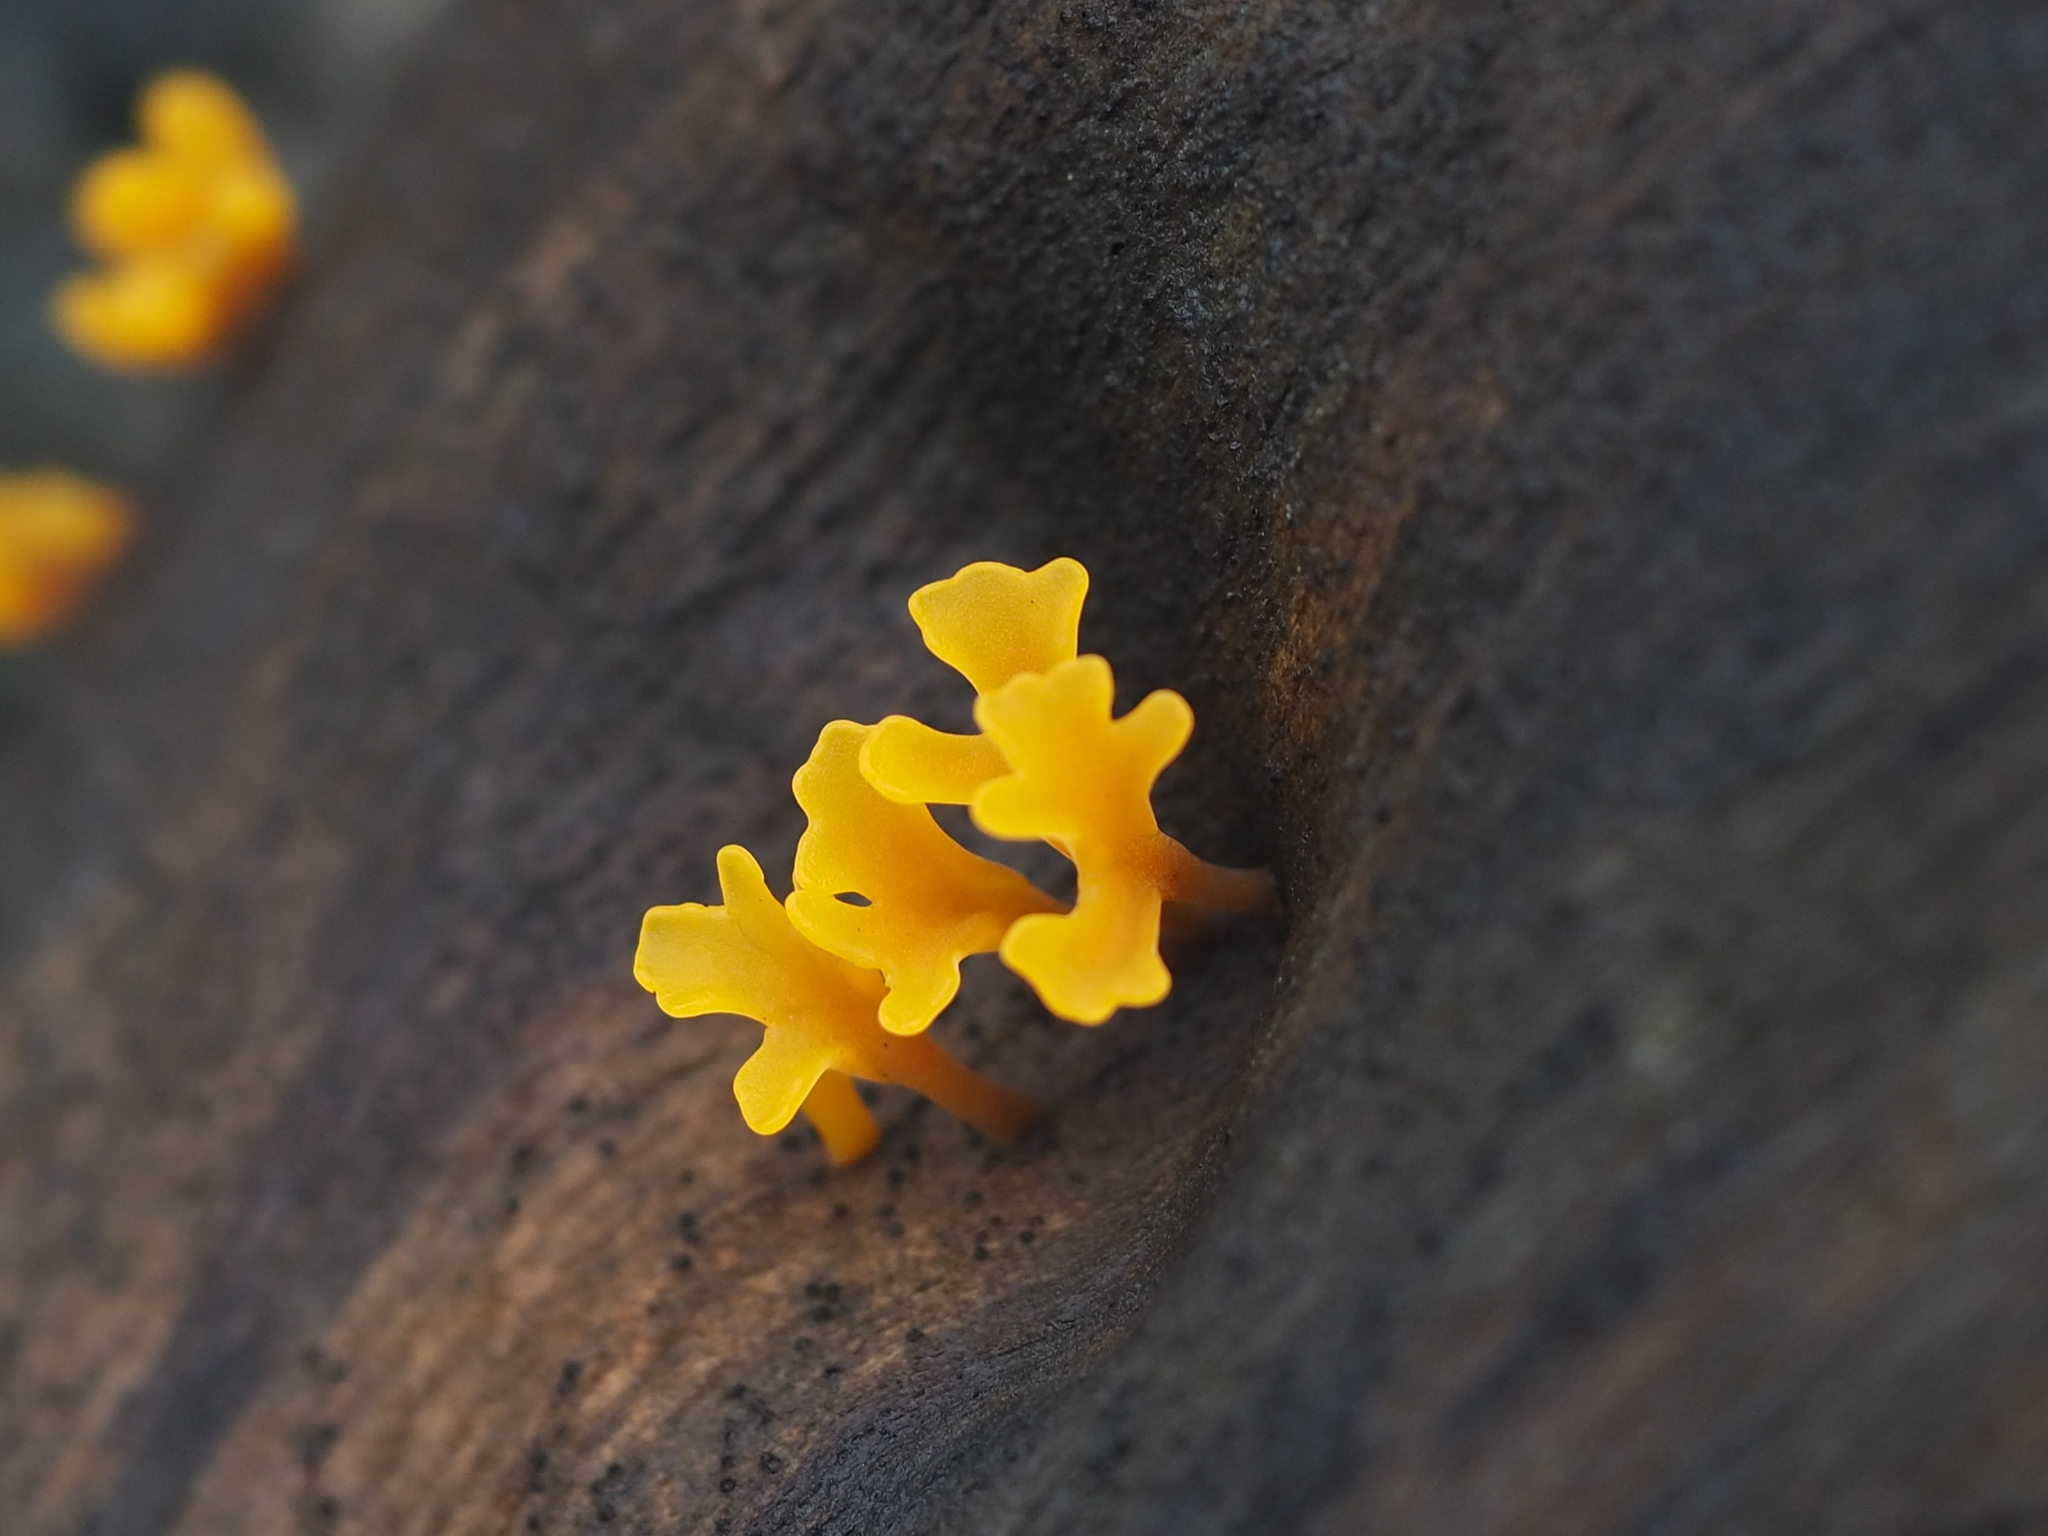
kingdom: Fungi
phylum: Basidiomycota
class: Dacrymycetes
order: Dacrymycetales
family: Dacrymycetaceae
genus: Dacrymyces
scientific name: Dacrymyces spathularius
